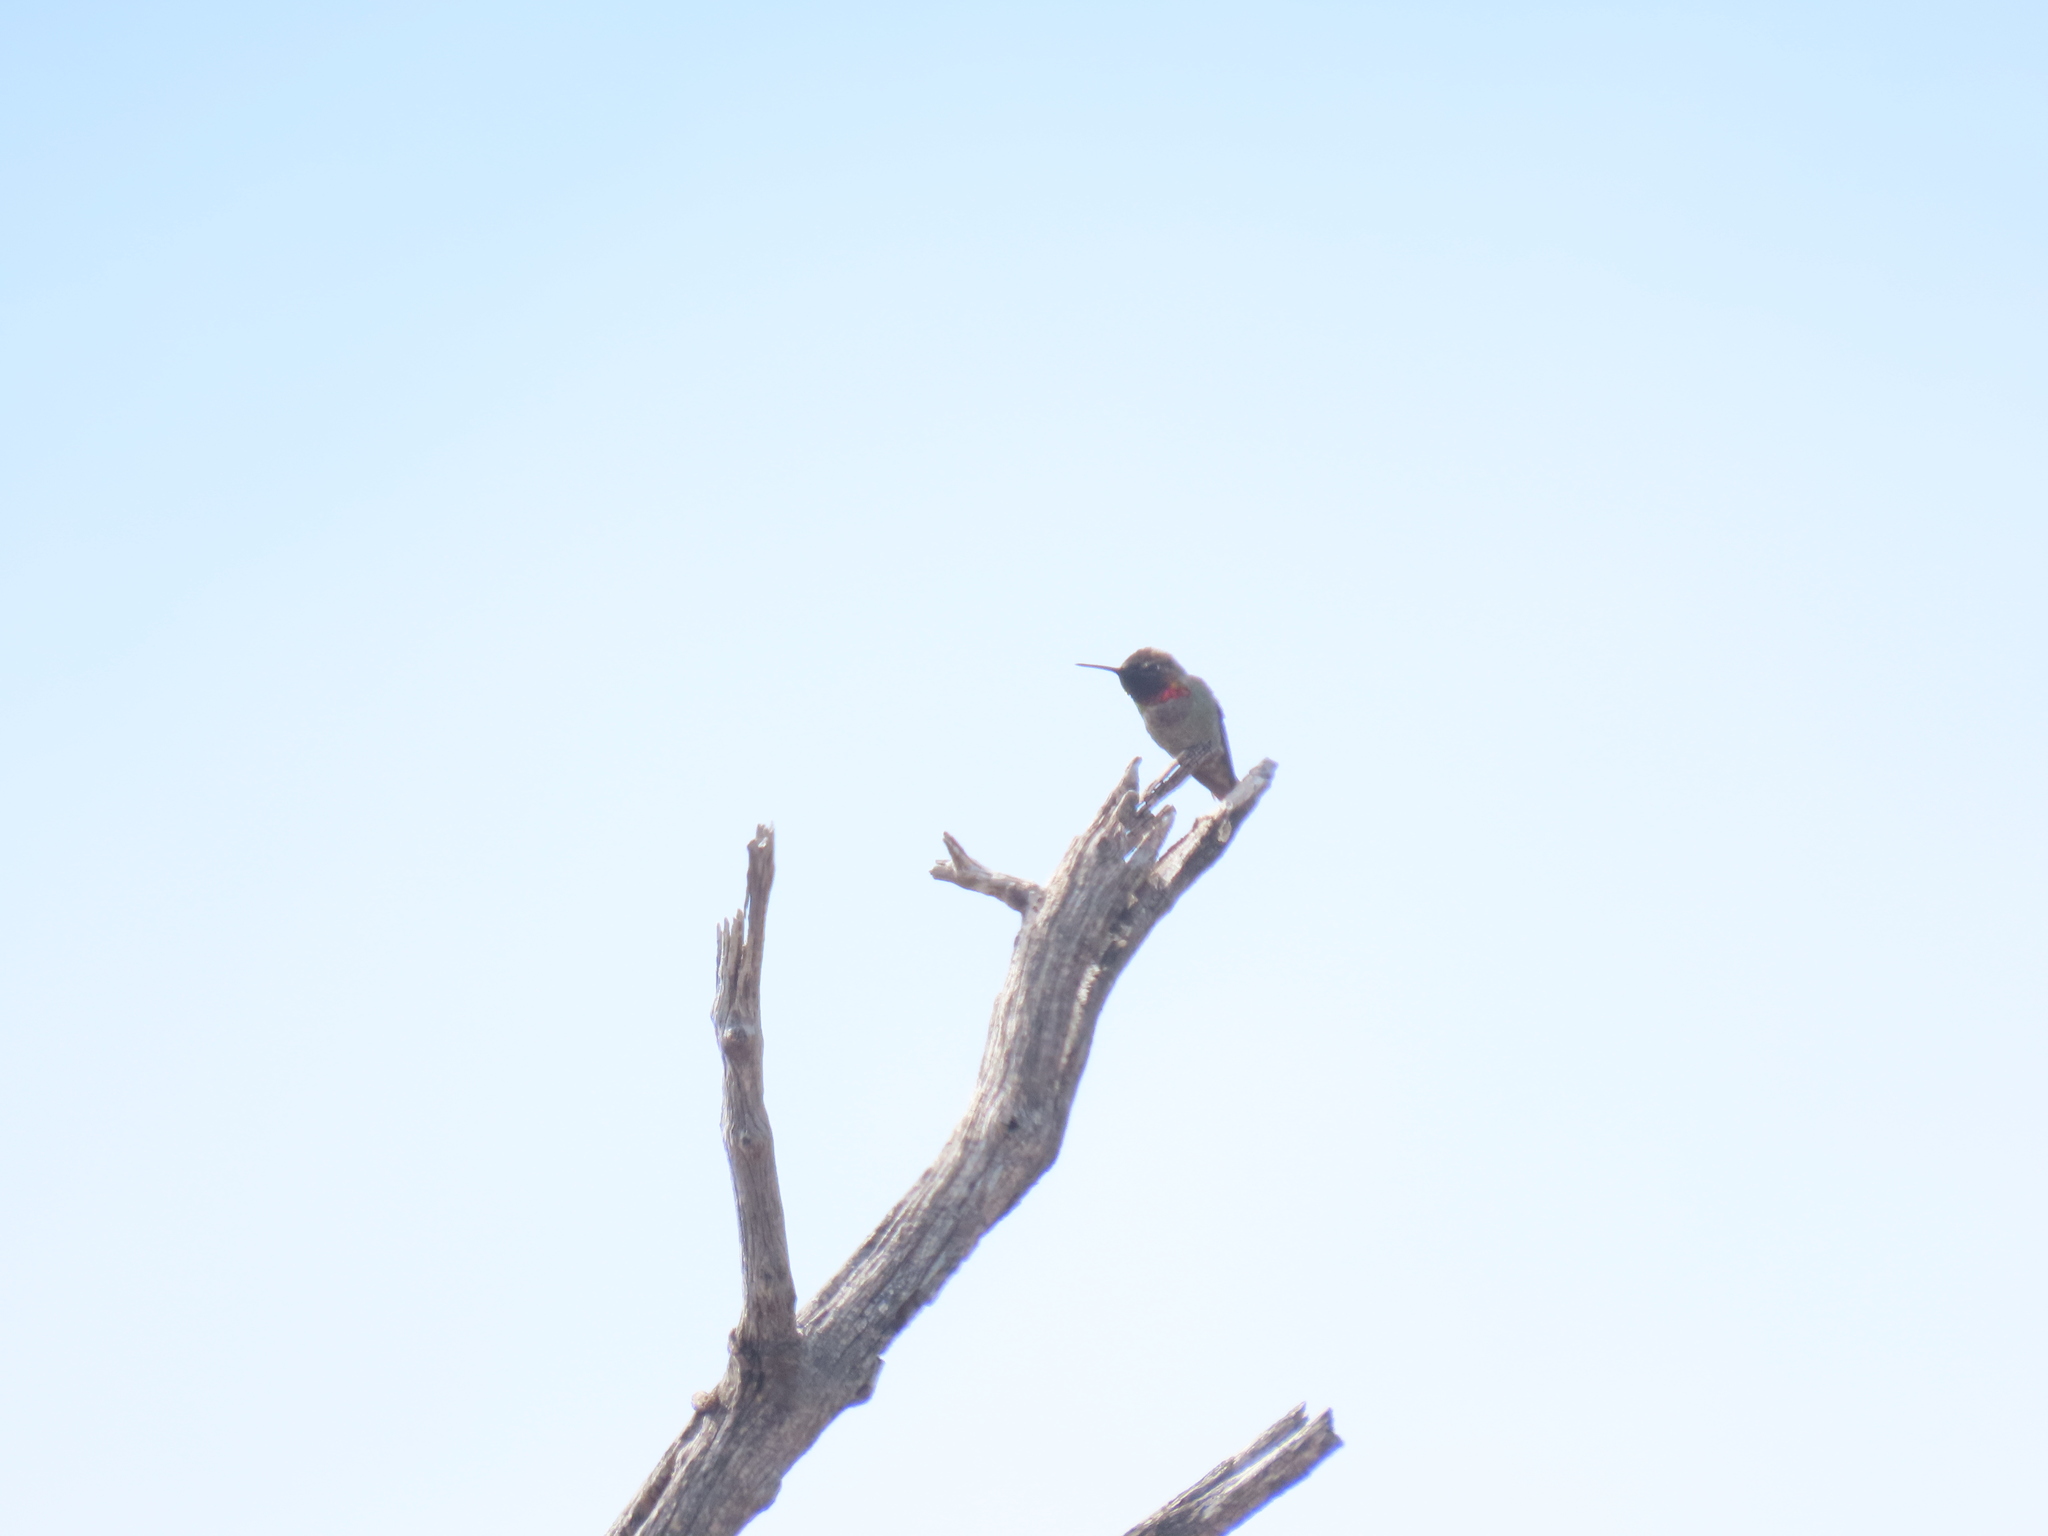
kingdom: Animalia
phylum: Chordata
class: Aves
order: Apodiformes
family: Trochilidae
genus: Calypte
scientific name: Calypte anna
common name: Anna's hummingbird
